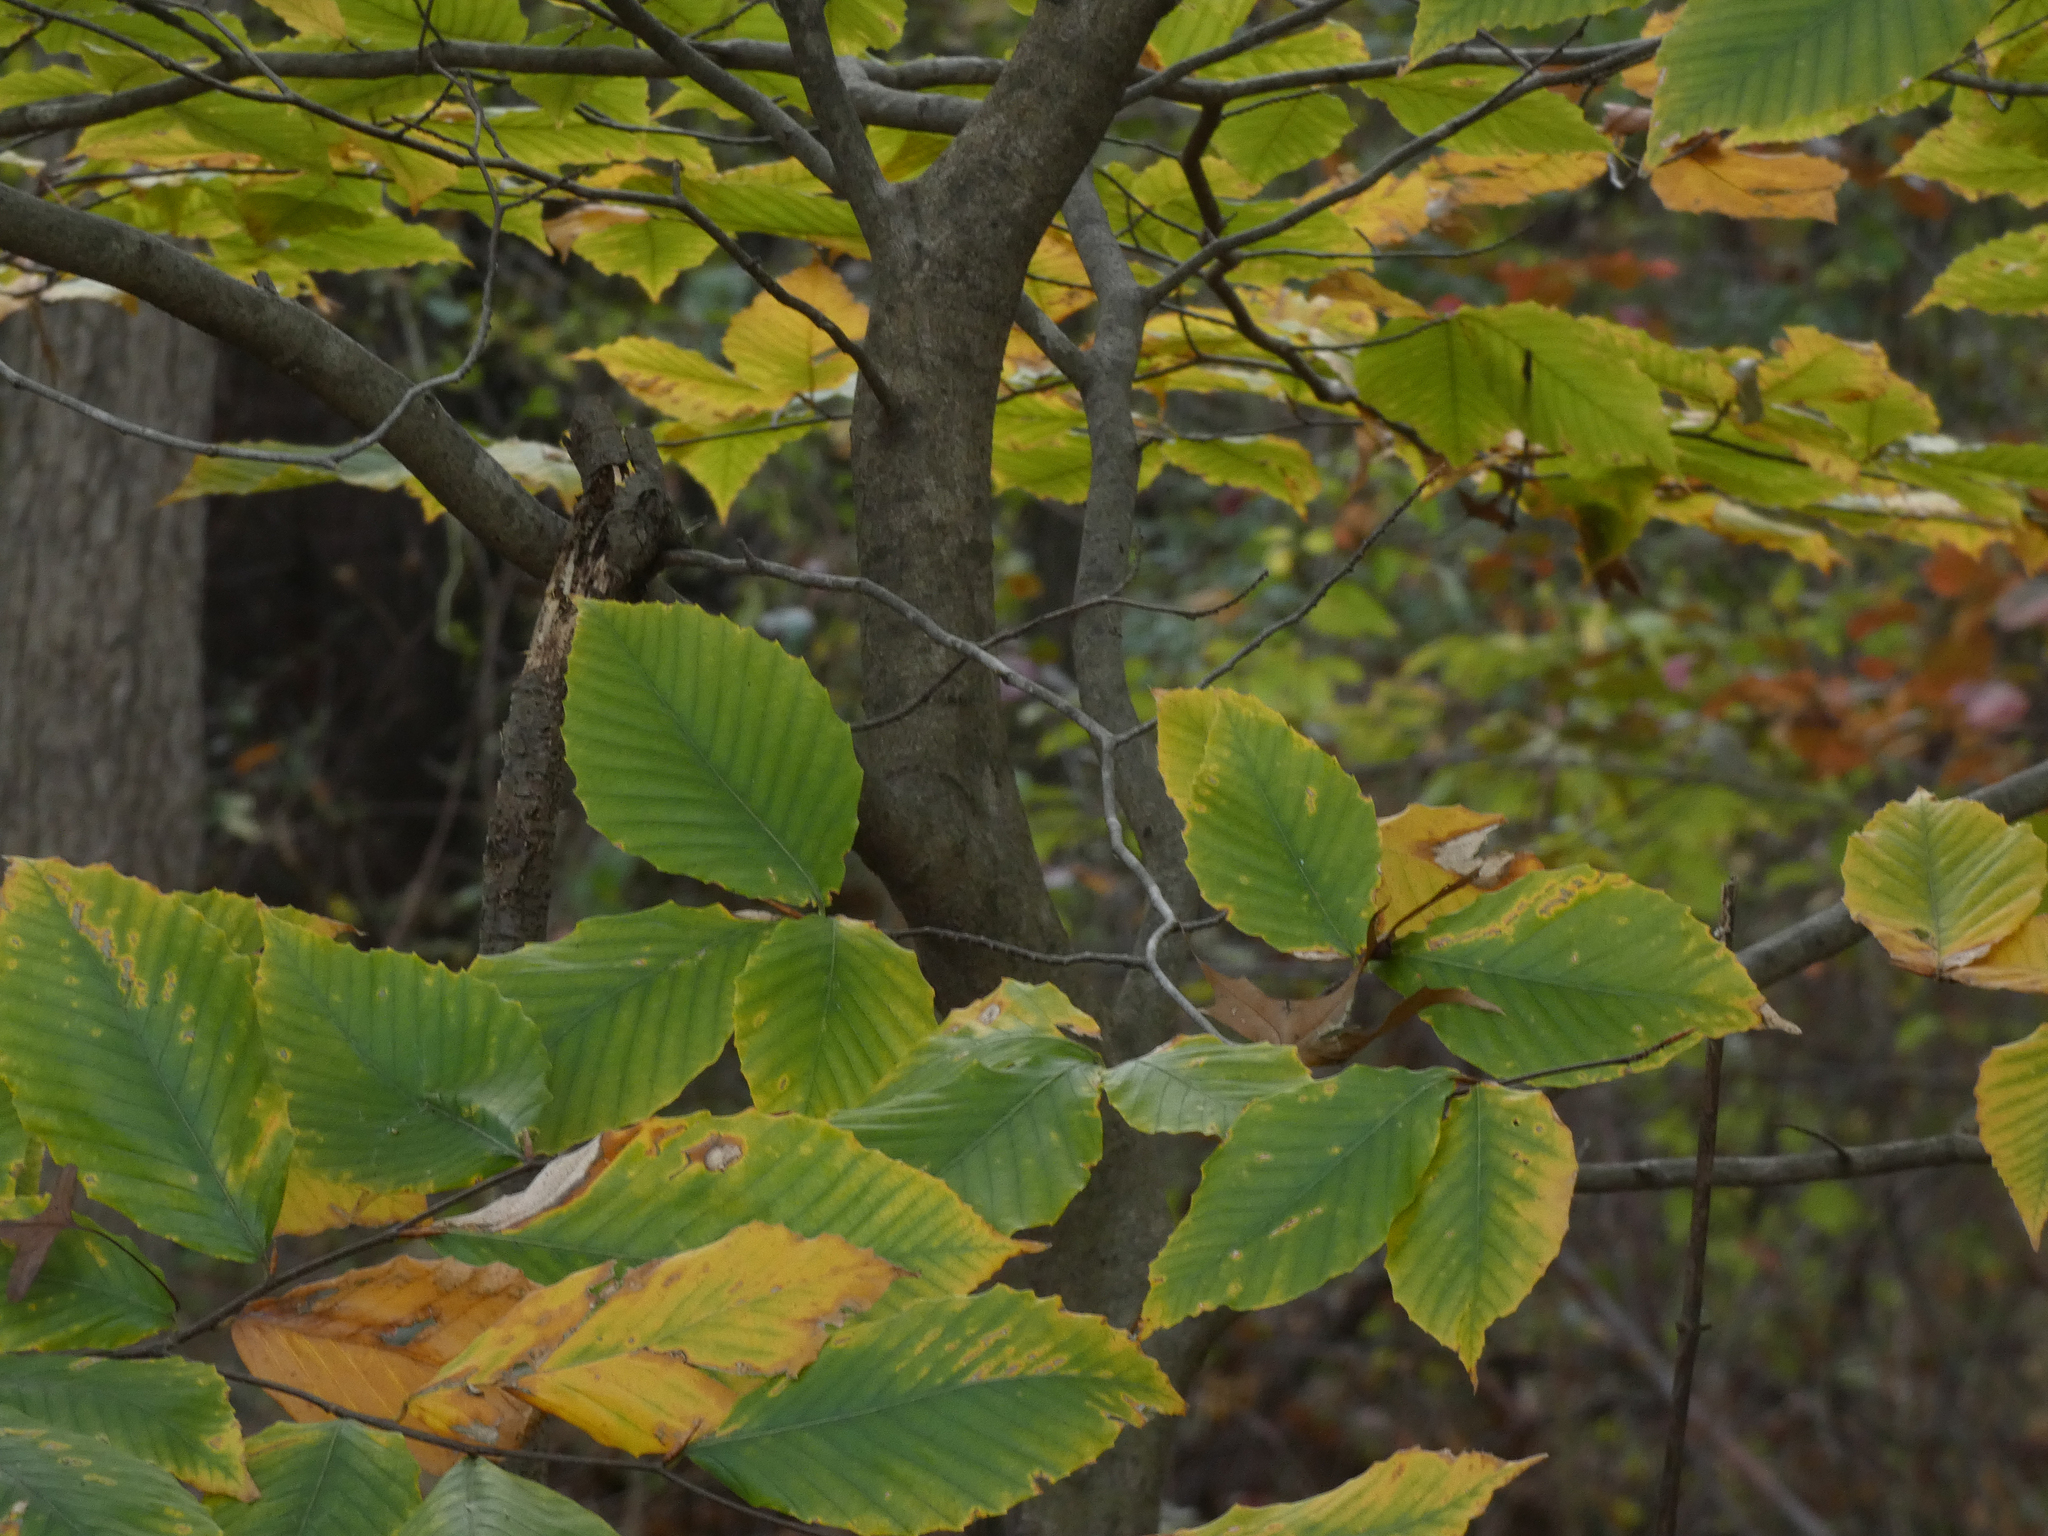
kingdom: Plantae
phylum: Tracheophyta
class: Magnoliopsida
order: Fagales
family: Fagaceae
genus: Fagus
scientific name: Fagus grandifolia
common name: American beech
